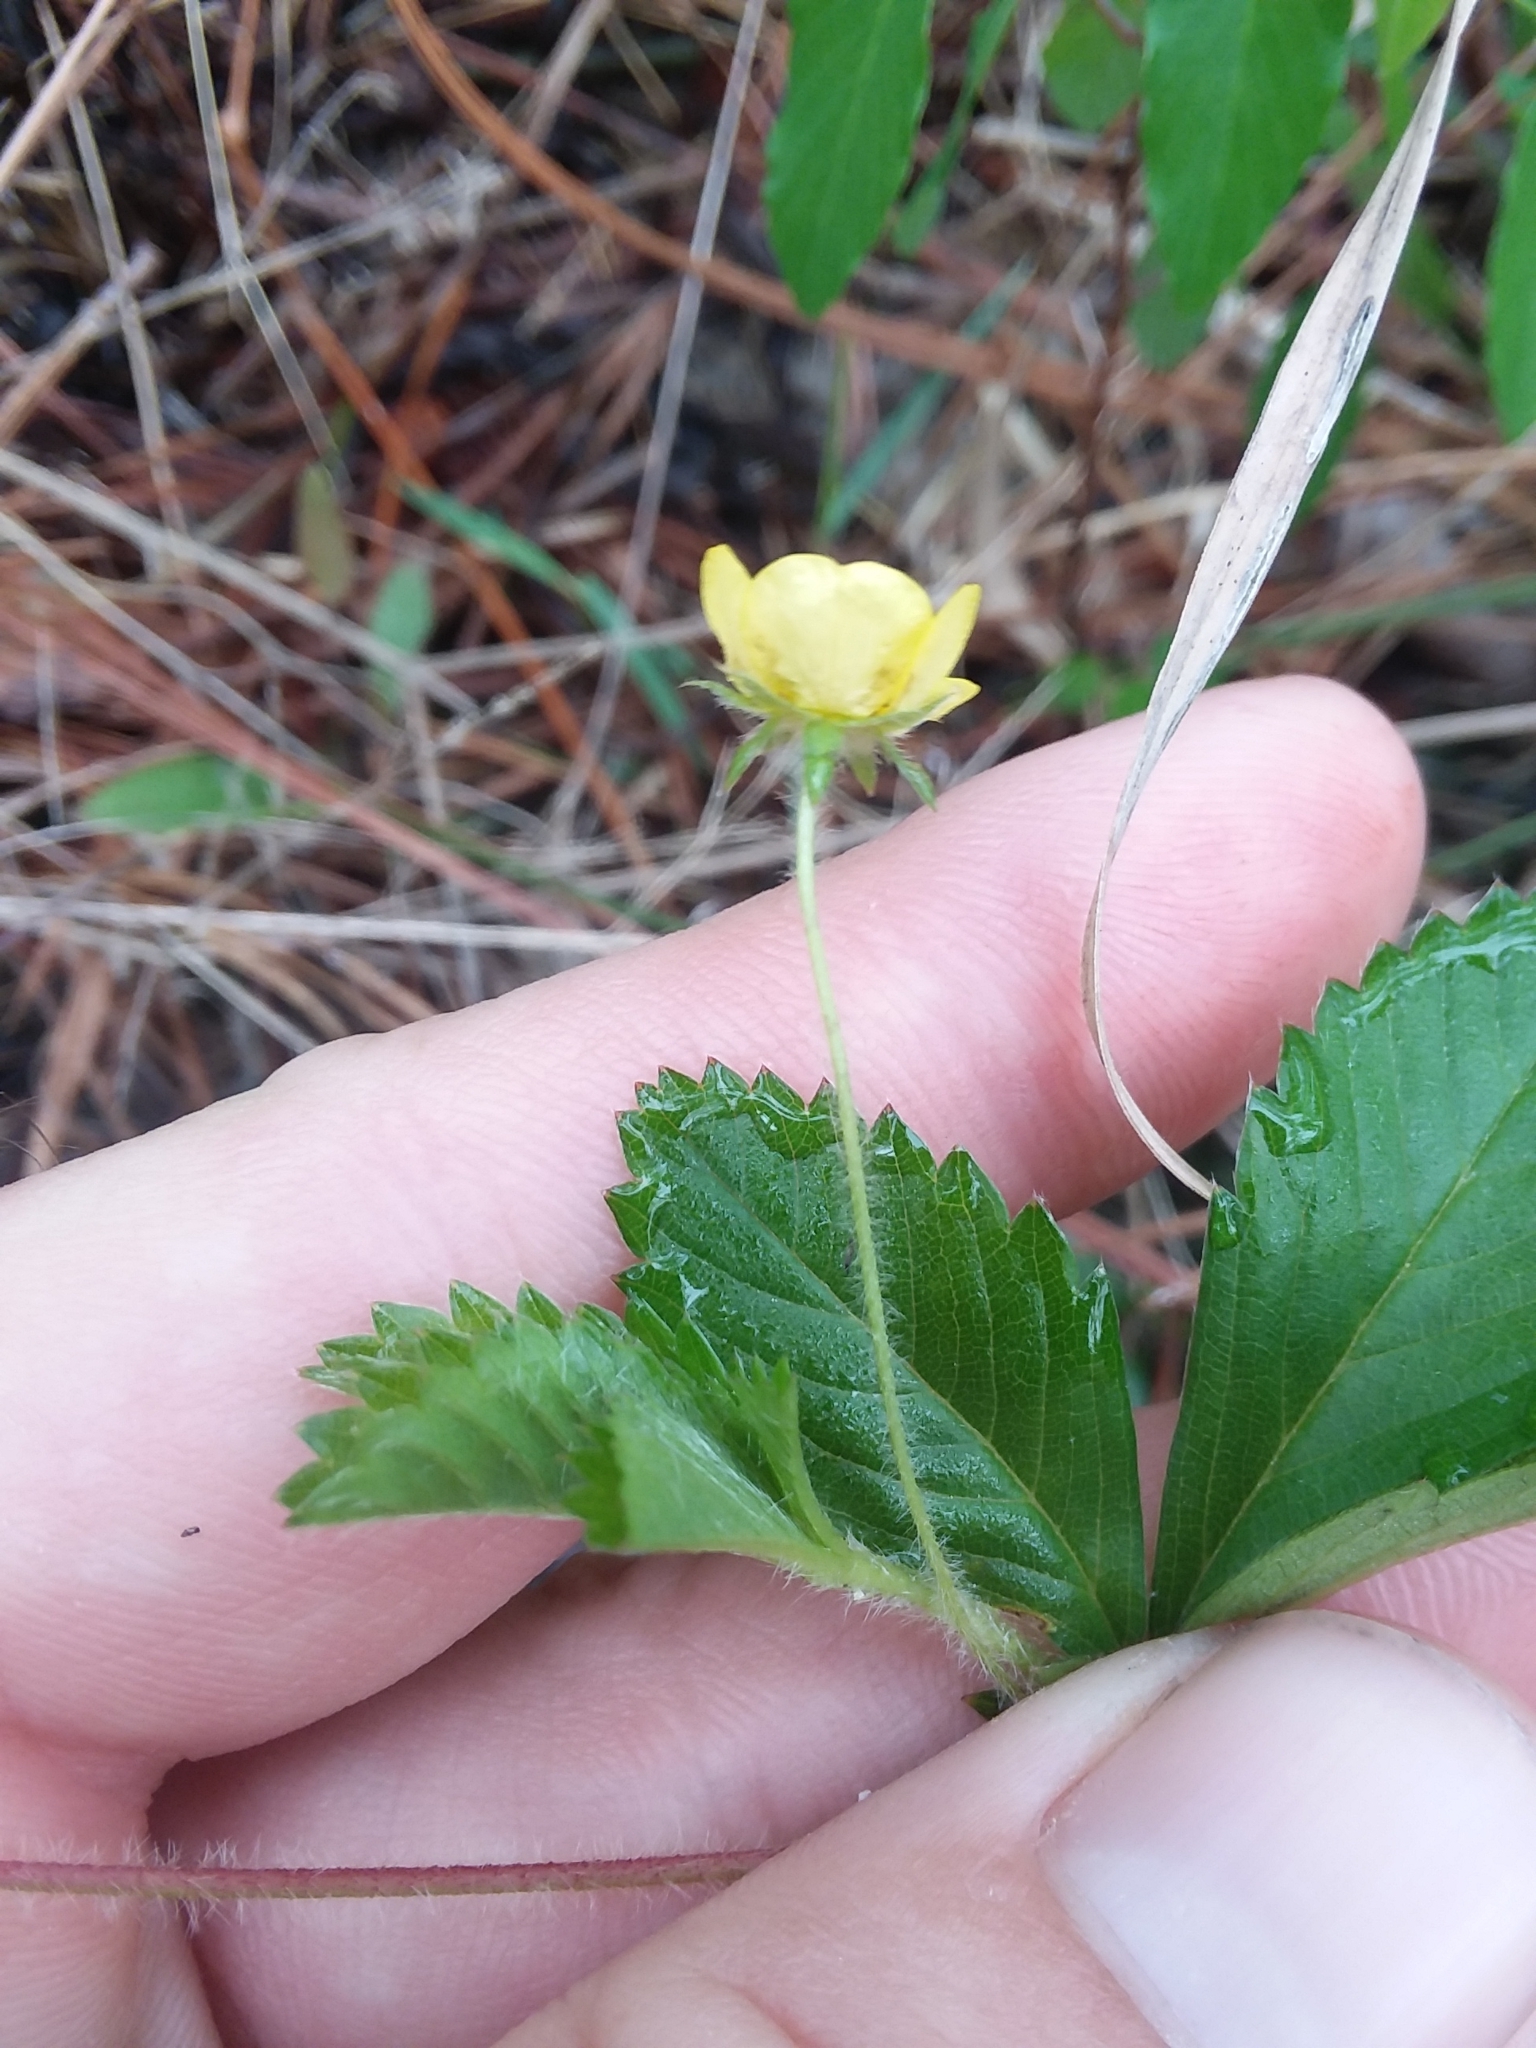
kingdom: Plantae
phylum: Tracheophyta
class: Magnoliopsida
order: Rosales
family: Rosaceae
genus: Potentilla
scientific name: Potentilla simplex
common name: Old field cinquefoil
